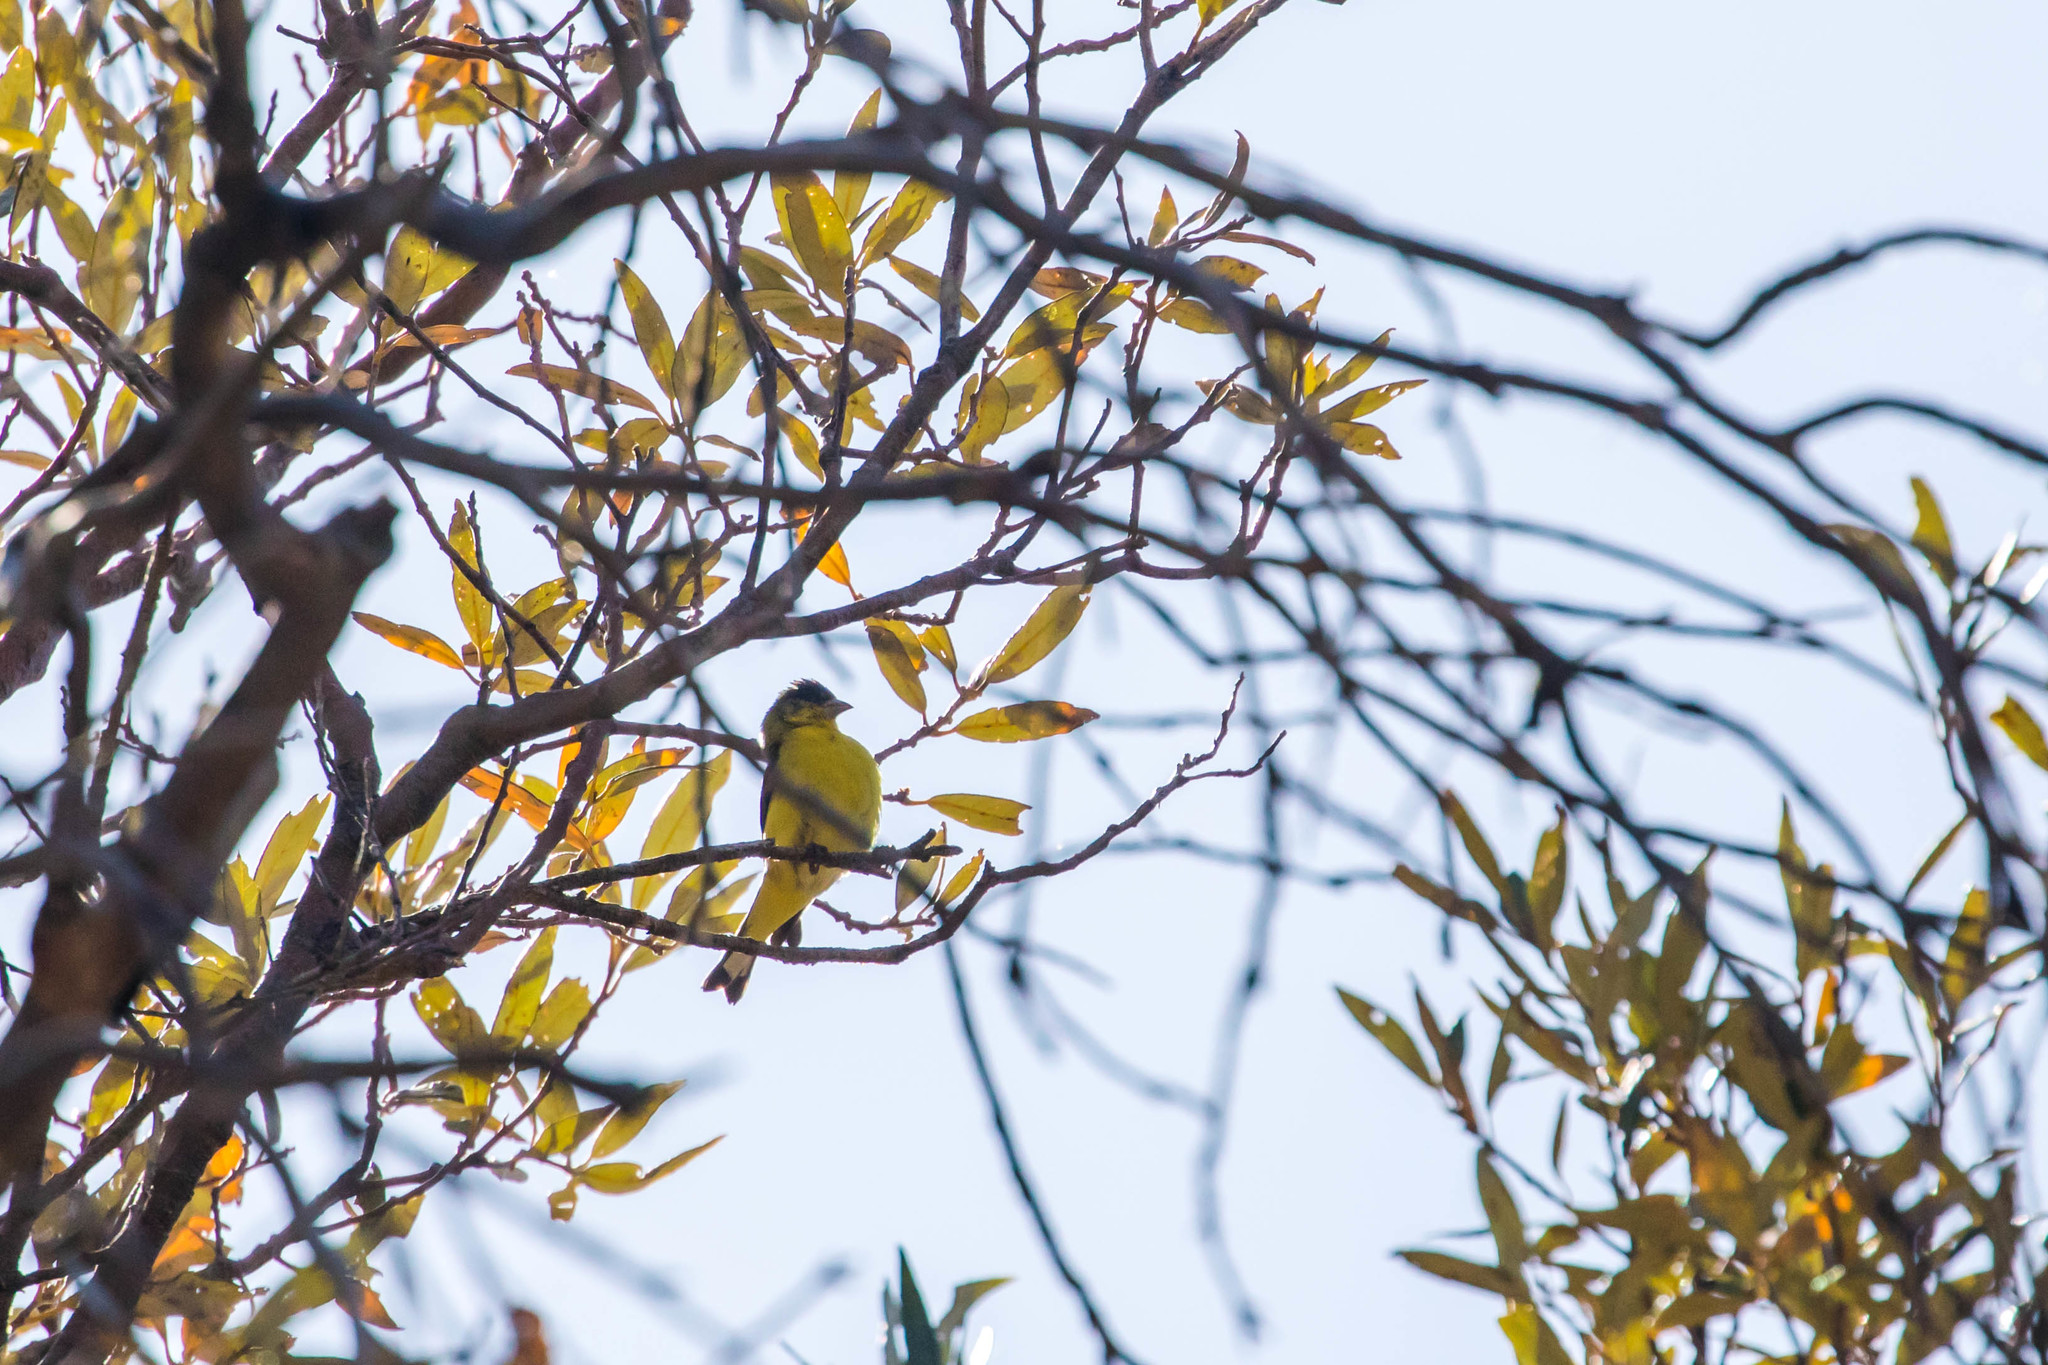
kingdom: Animalia
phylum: Chordata
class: Aves
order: Passeriformes
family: Fringillidae
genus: Spinus
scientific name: Spinus psaltria
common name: Lesser goldfinch
